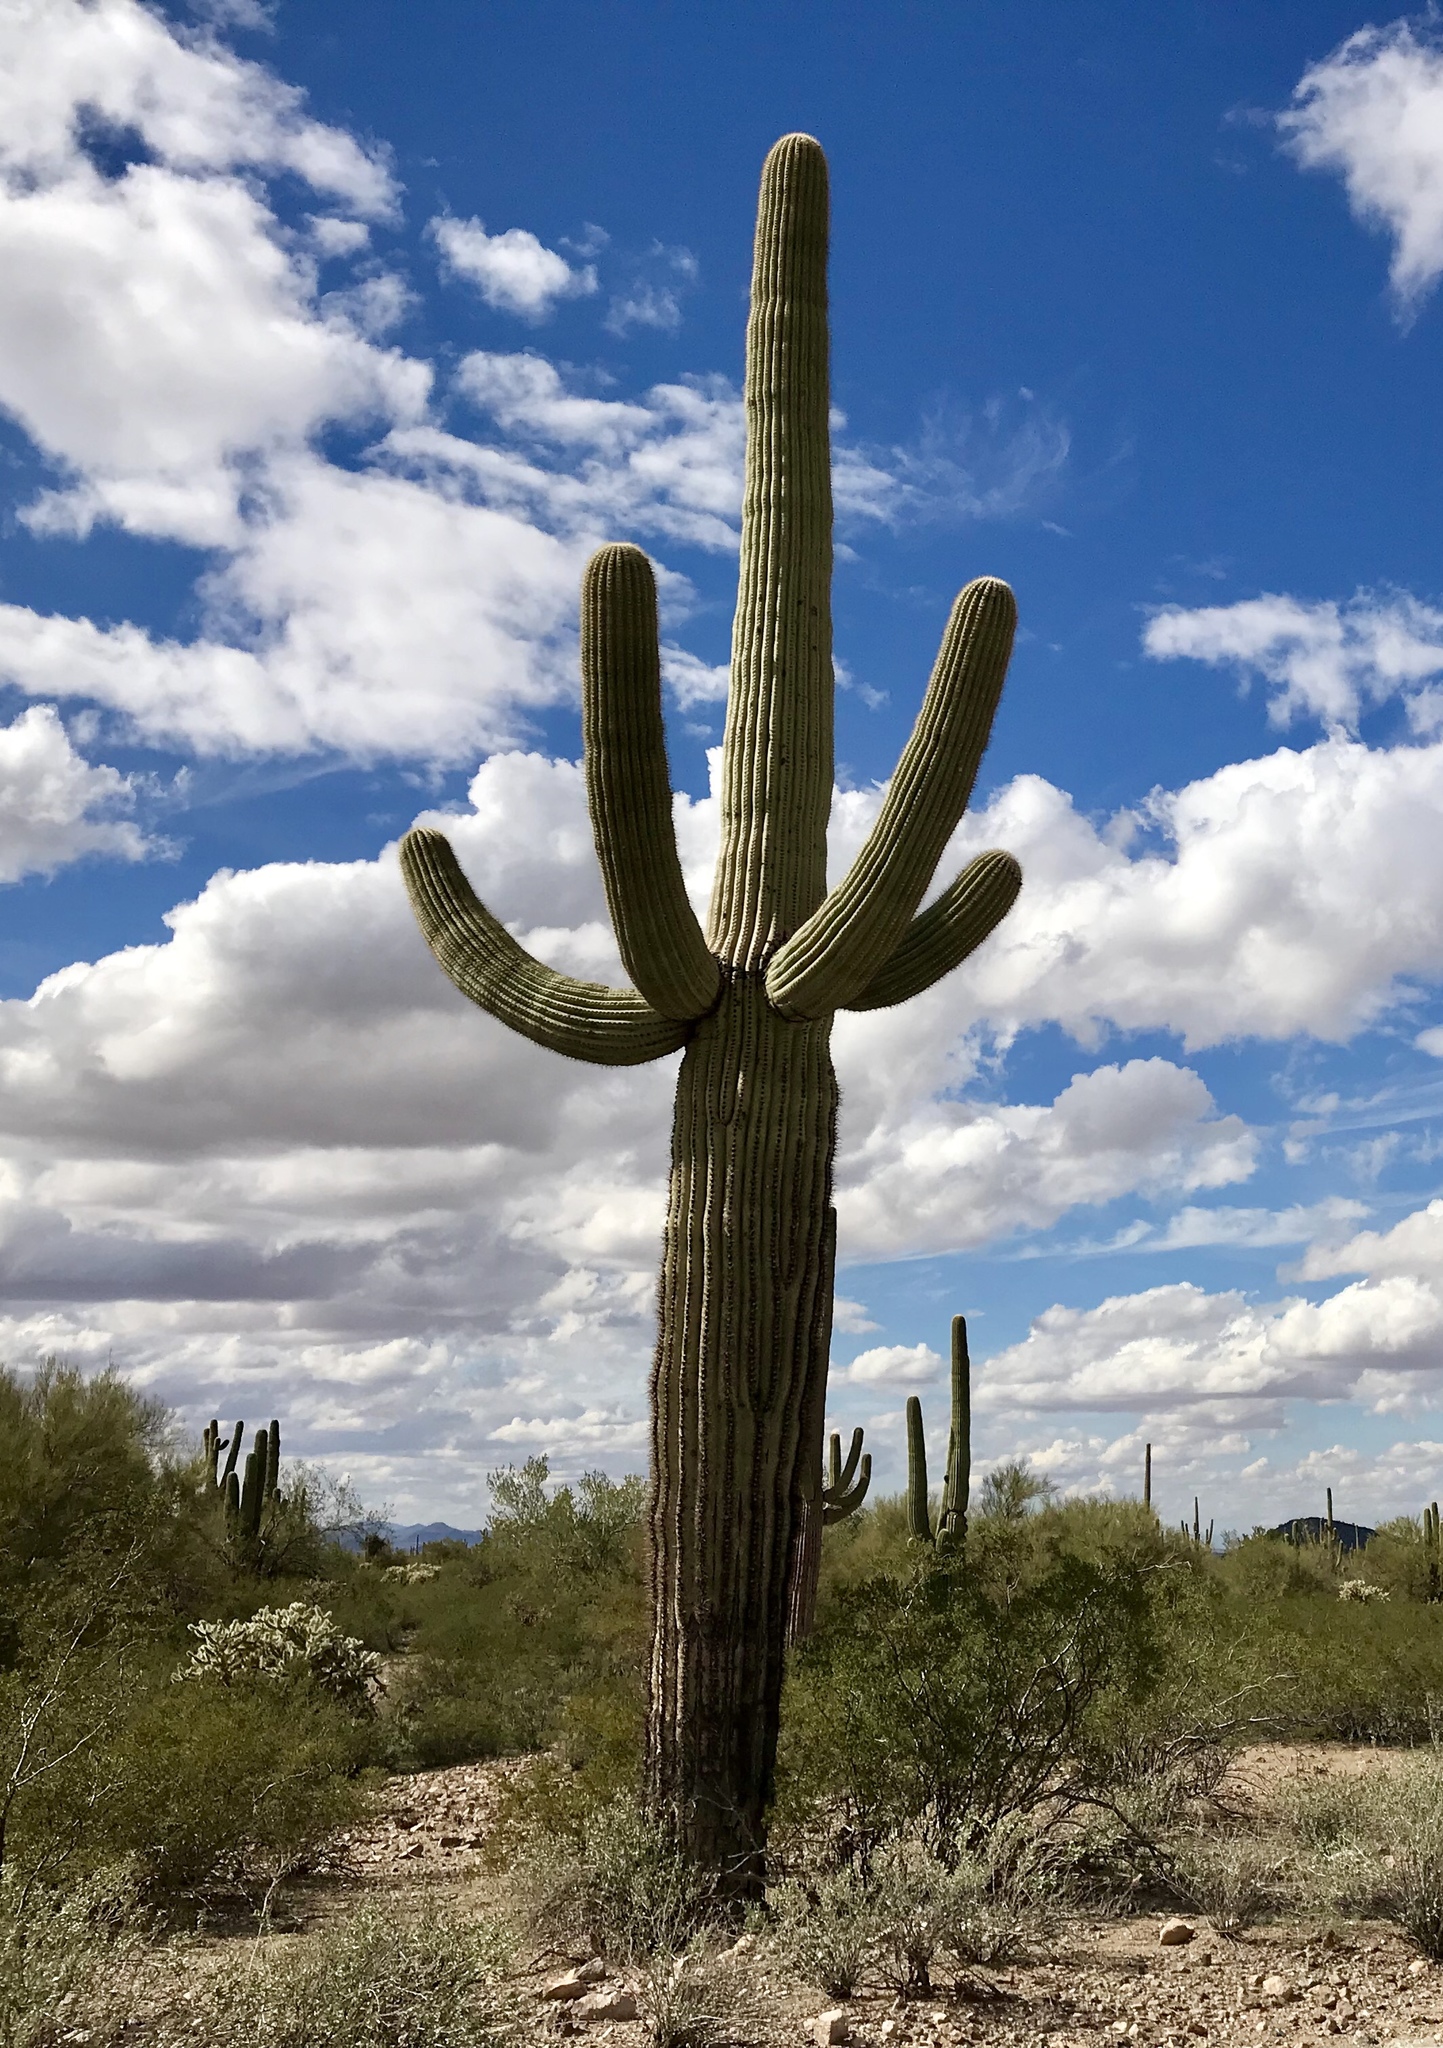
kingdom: Plantae
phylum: Tracheophyta
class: Magnoliopsida
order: Caryophyllales
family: Cactaceae
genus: Carnegiea
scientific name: Carnegiea gigantea
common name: Saguaro
